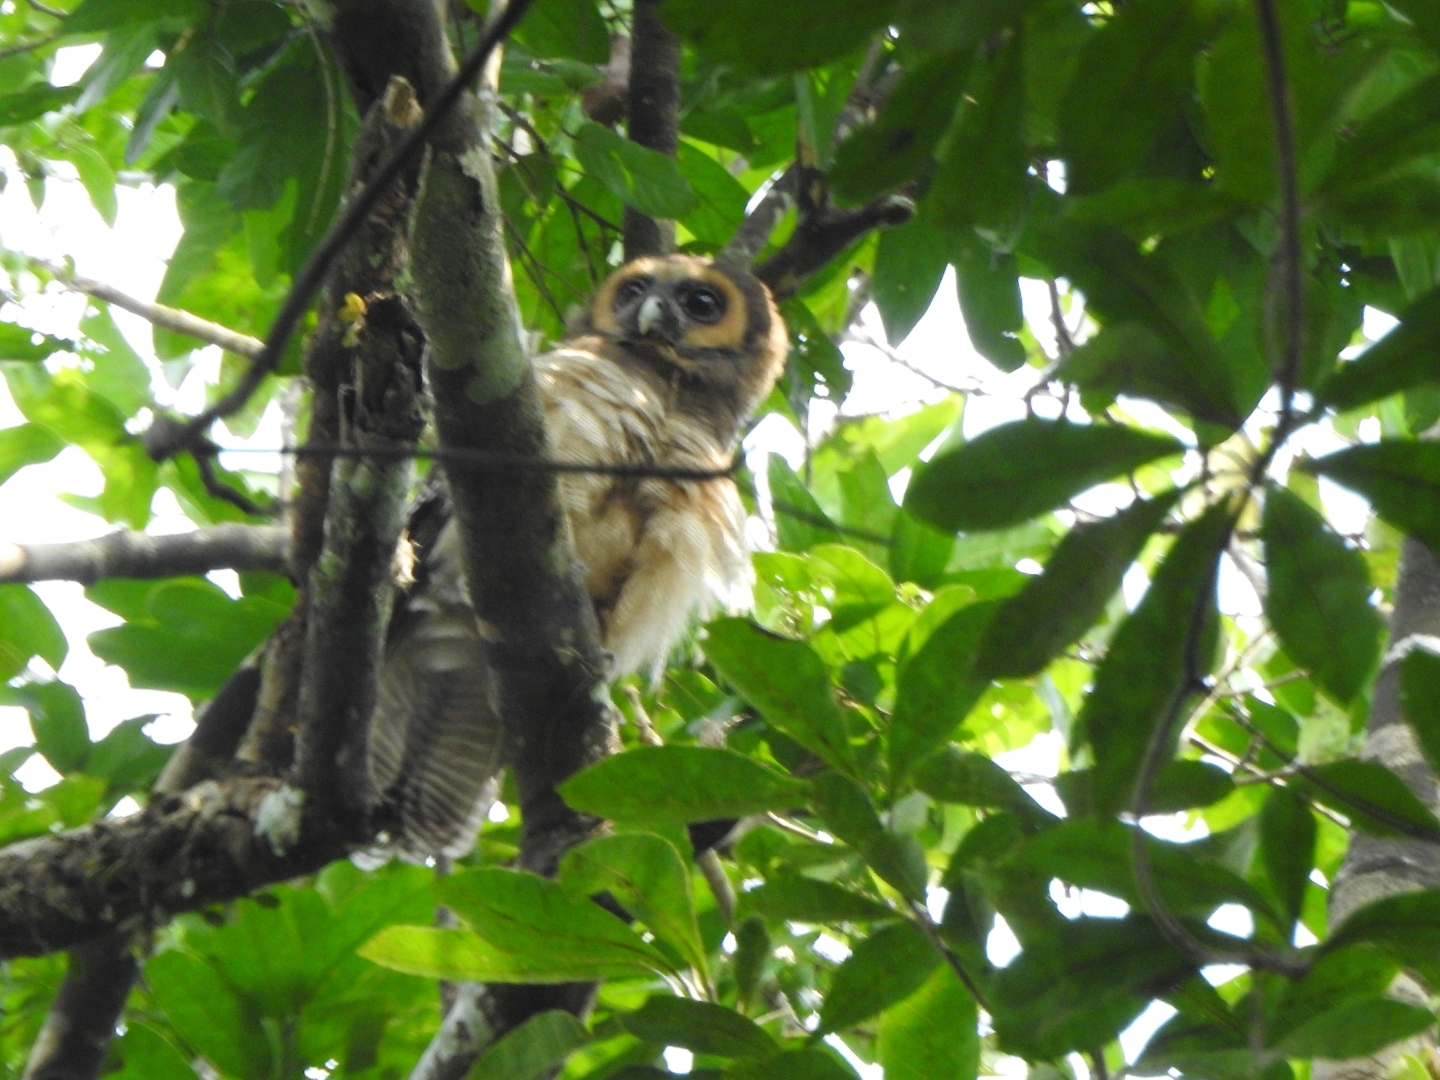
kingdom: Animalia
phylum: Chordata
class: Aves
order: Strigiformes
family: Strigidae
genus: Strix
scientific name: Strix leptogrammica
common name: Brown wood owl
